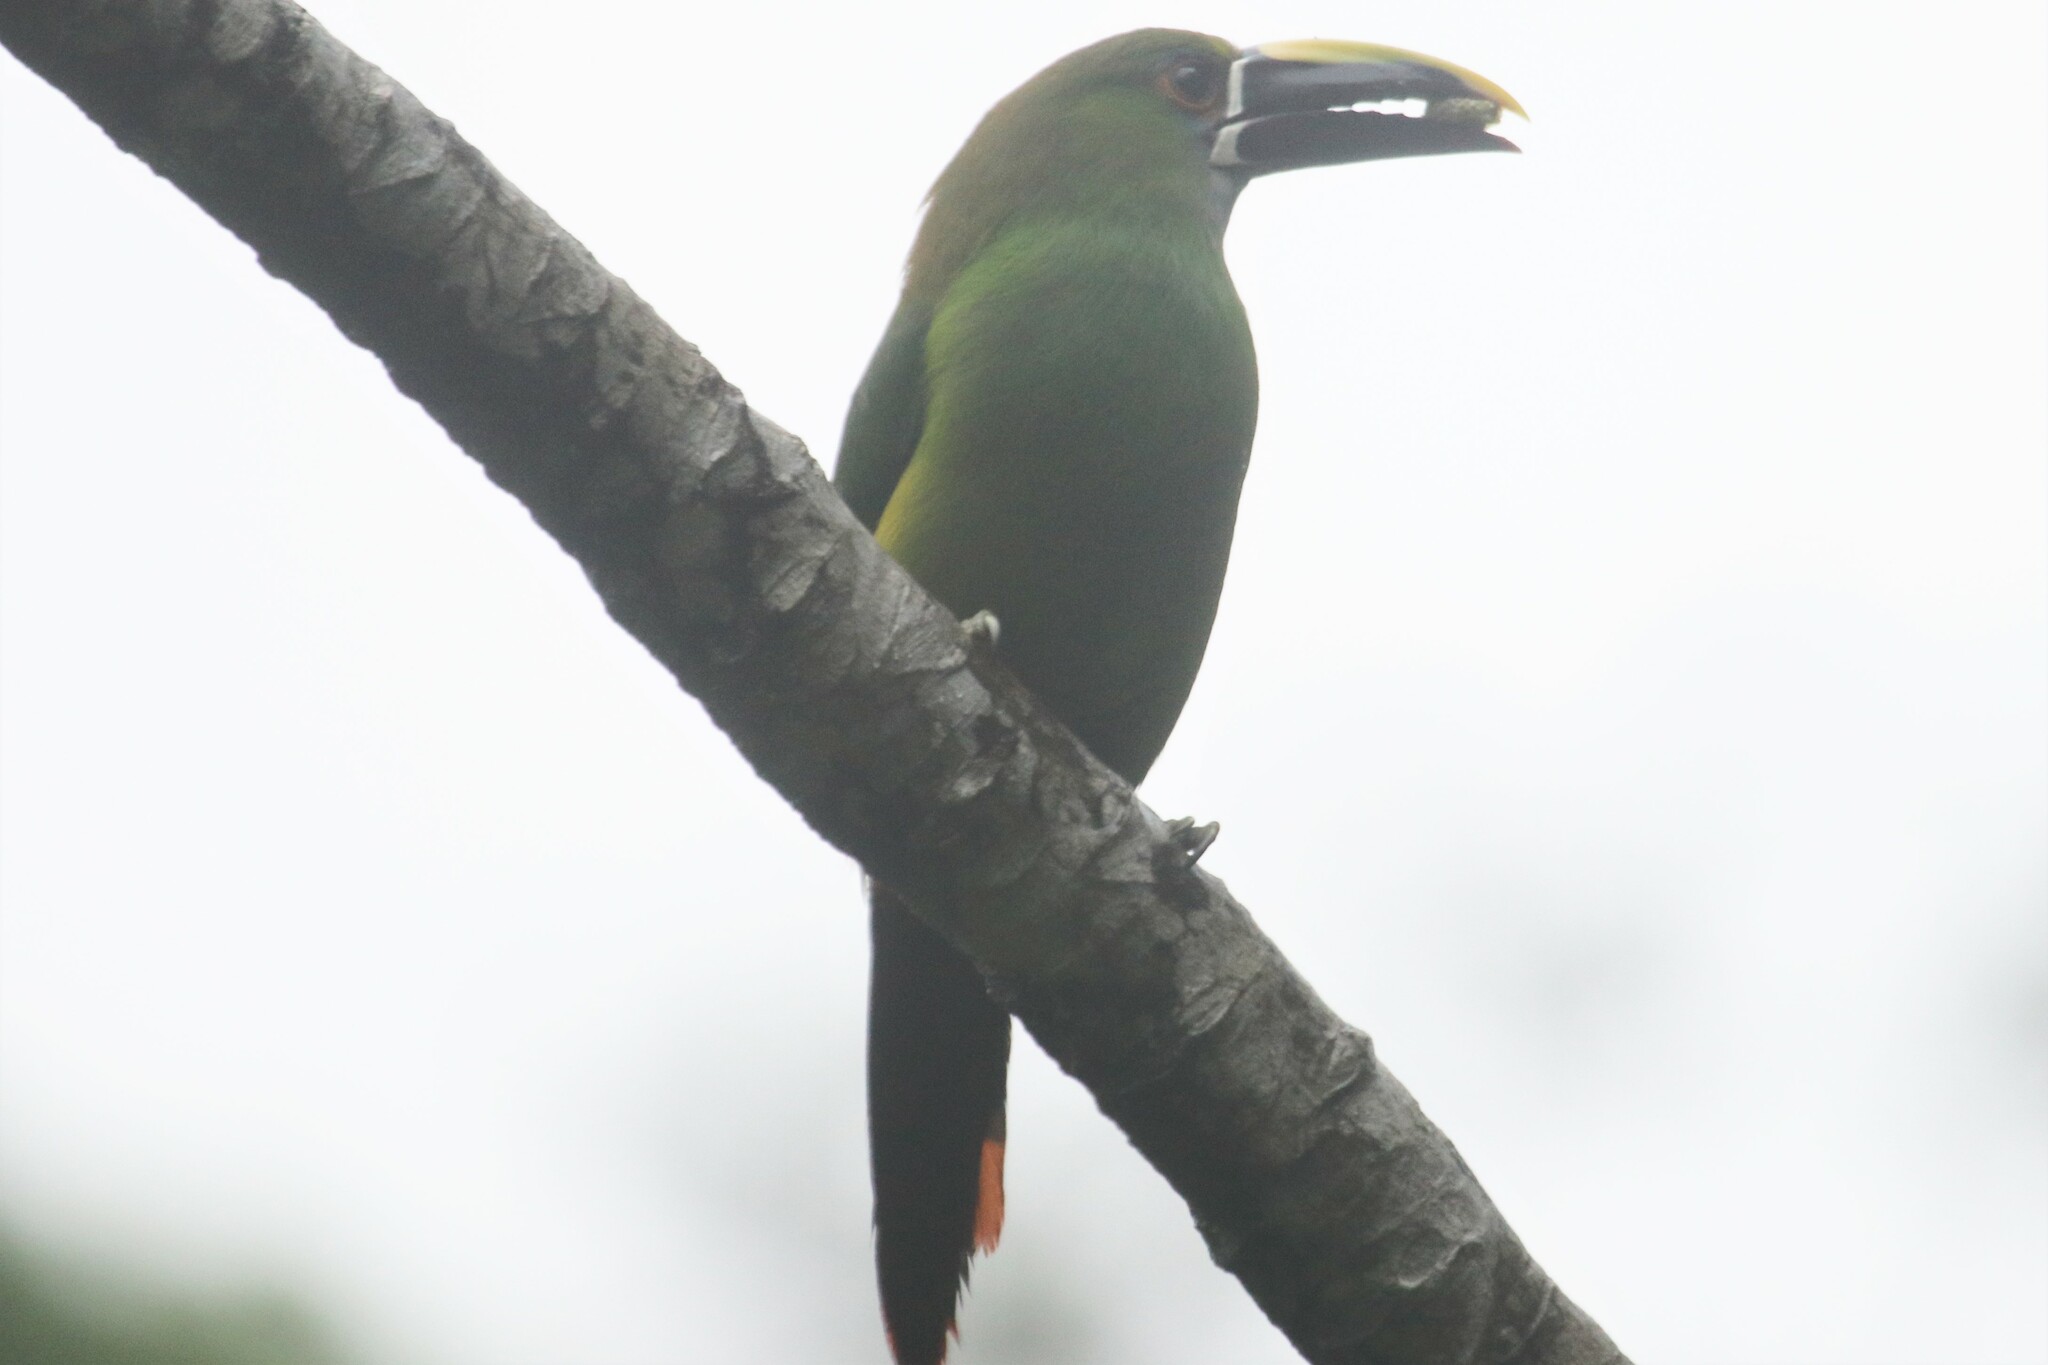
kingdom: Animalia
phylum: Chordata
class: Aves
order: Piciformes
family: Ramphastidae
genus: Aulacorhynchus
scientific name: Aulacorhynchus albivitta
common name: White-throated toucanet
